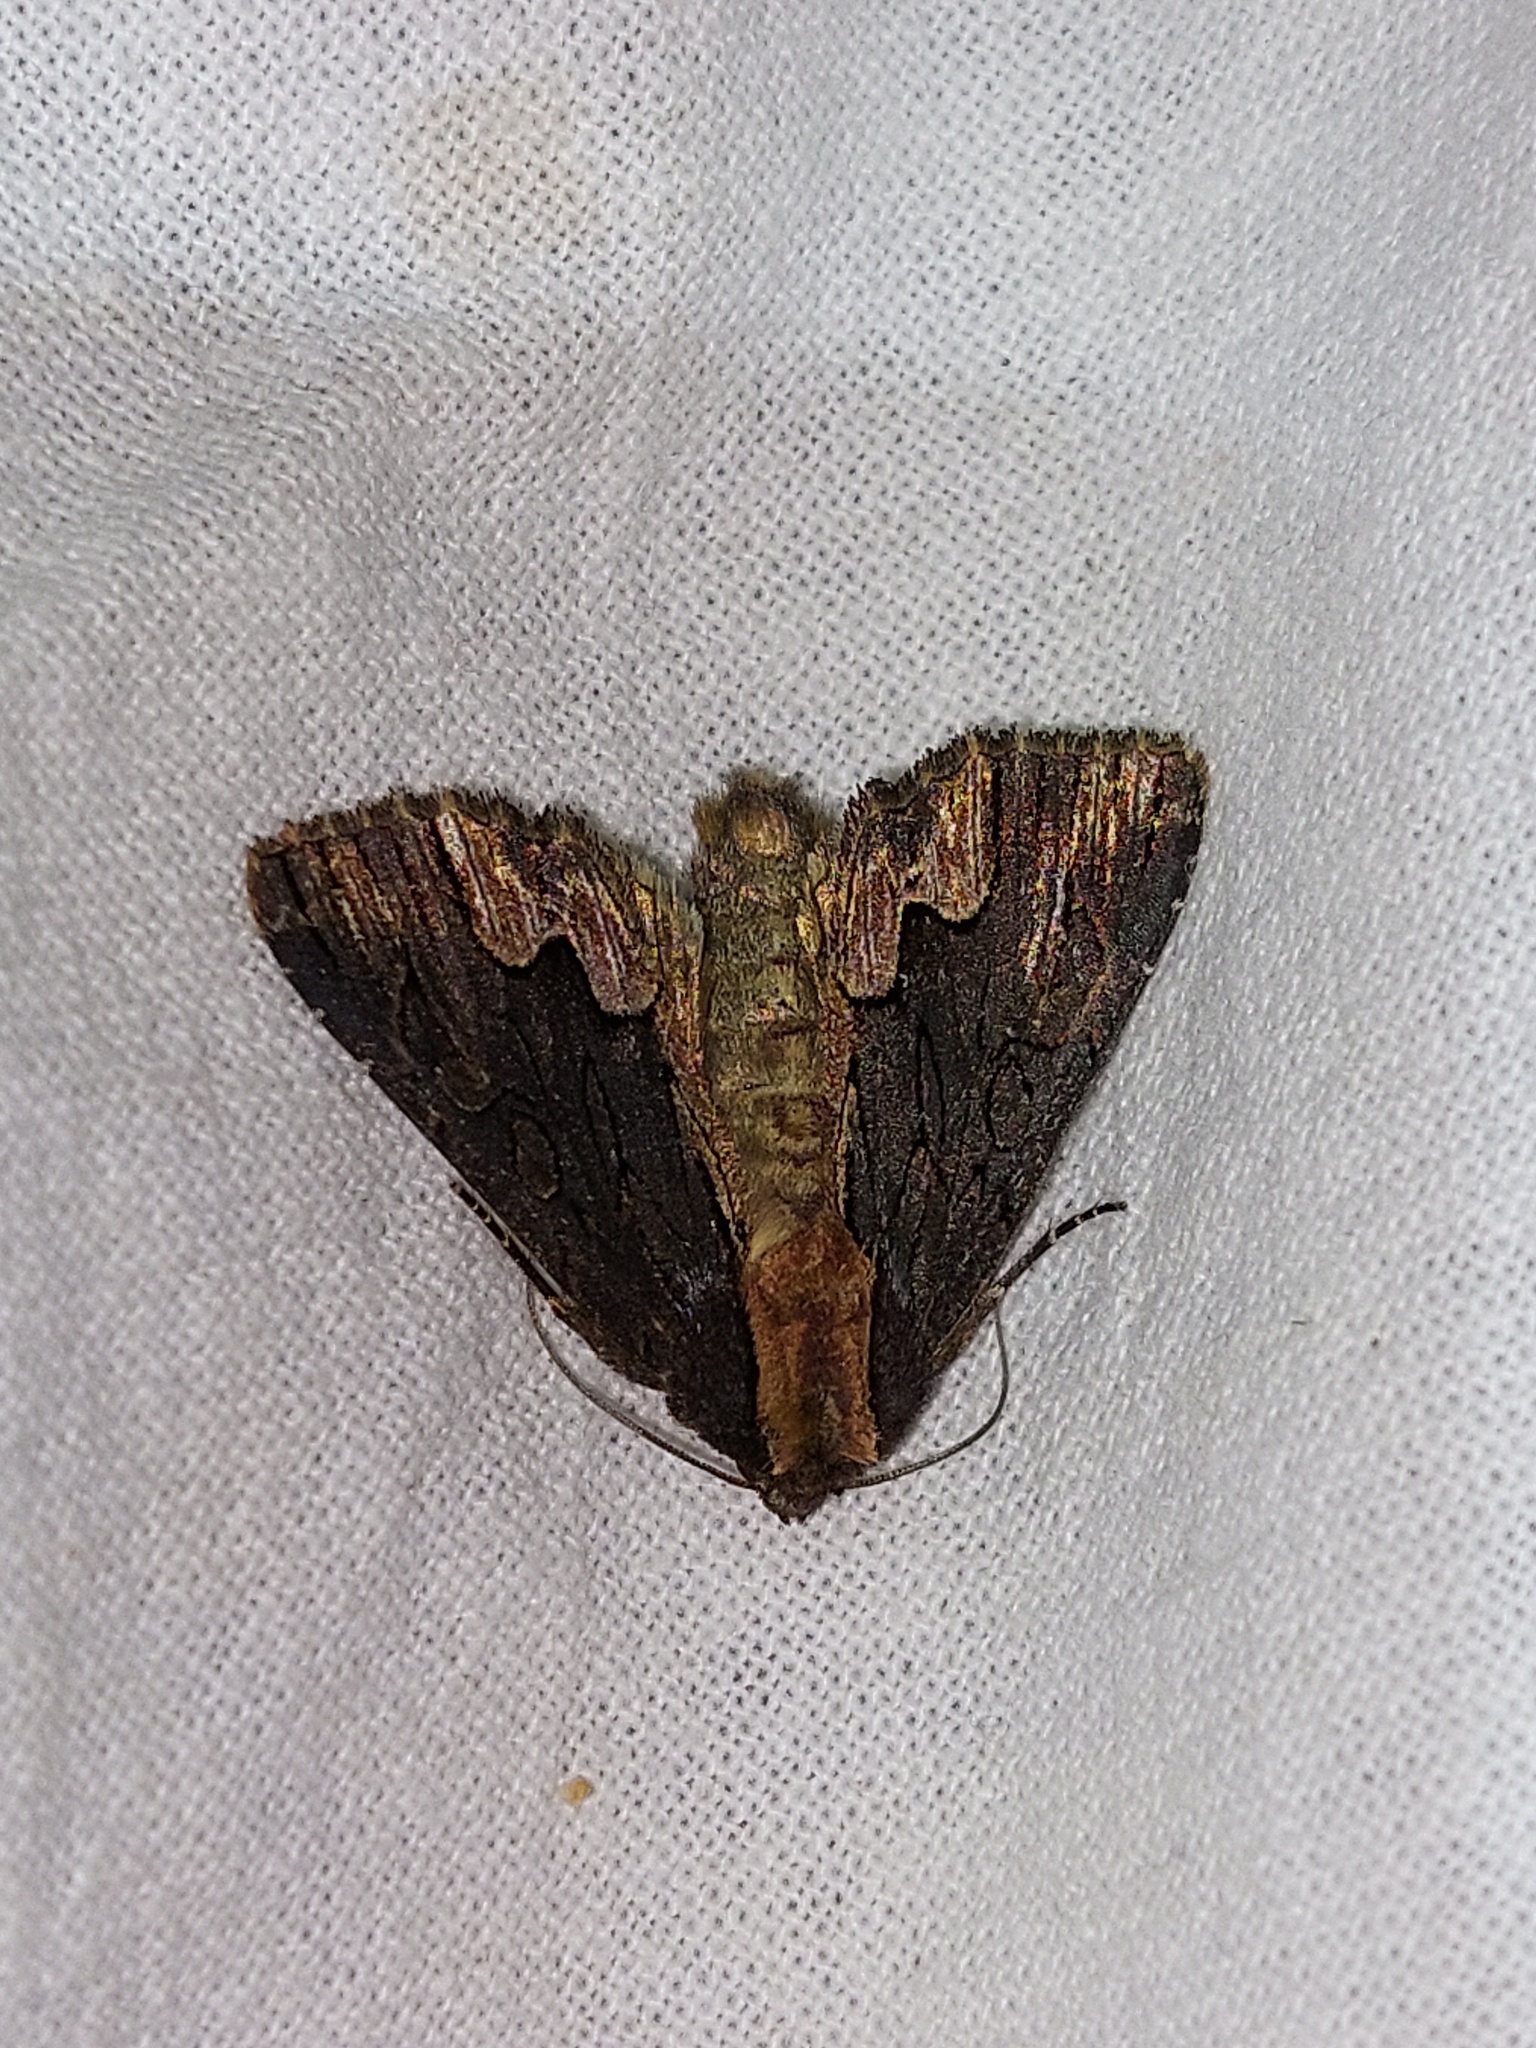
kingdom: Animalia
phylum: Arthropoda
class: Insecta
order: Lepidoptera
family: Noctuidae
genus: Dypterygia
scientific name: Dypterygia scabriuscula
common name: Bird's wing
